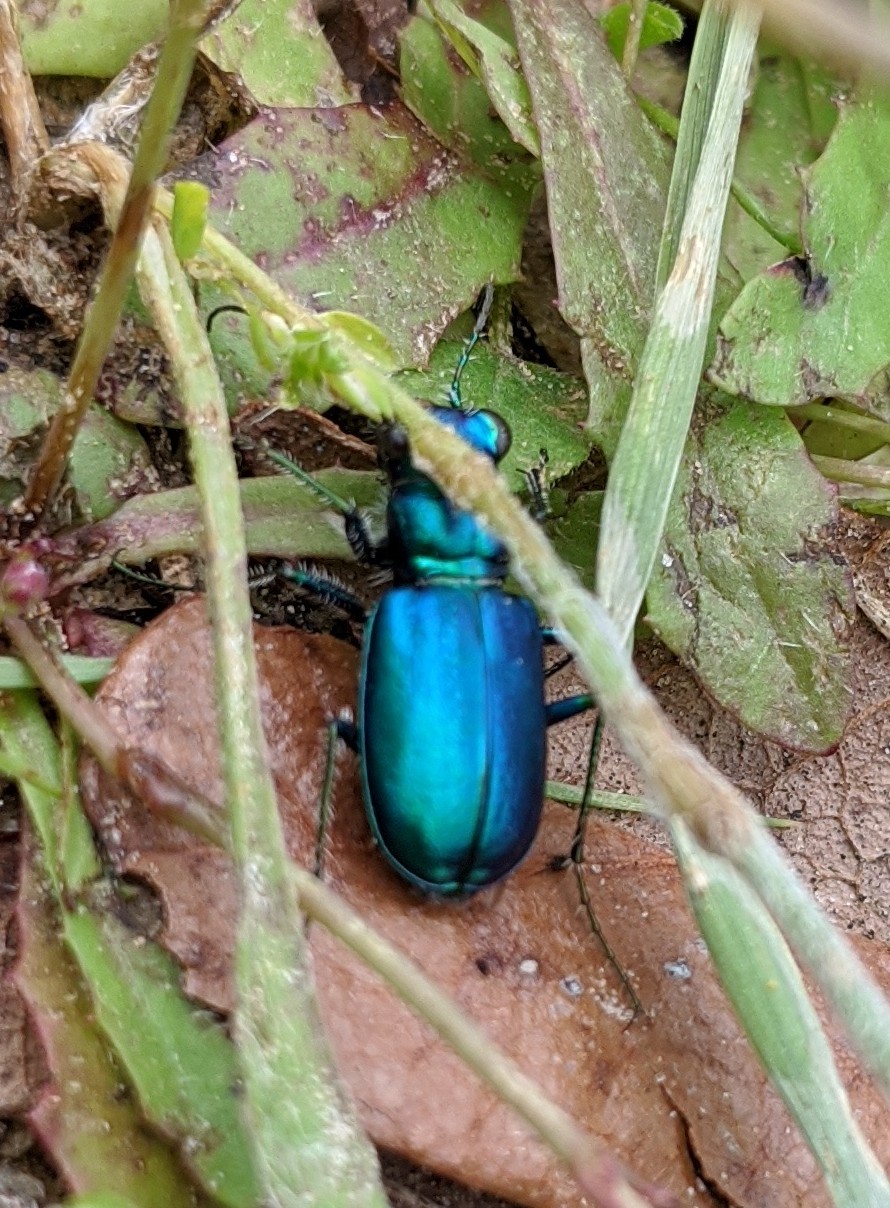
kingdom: Animalia
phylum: Arthropoda
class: Insecta
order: Coleoptera
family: Carabidae
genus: Cicindela
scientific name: Cicindela scutellaris
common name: Festive tiger beetle
